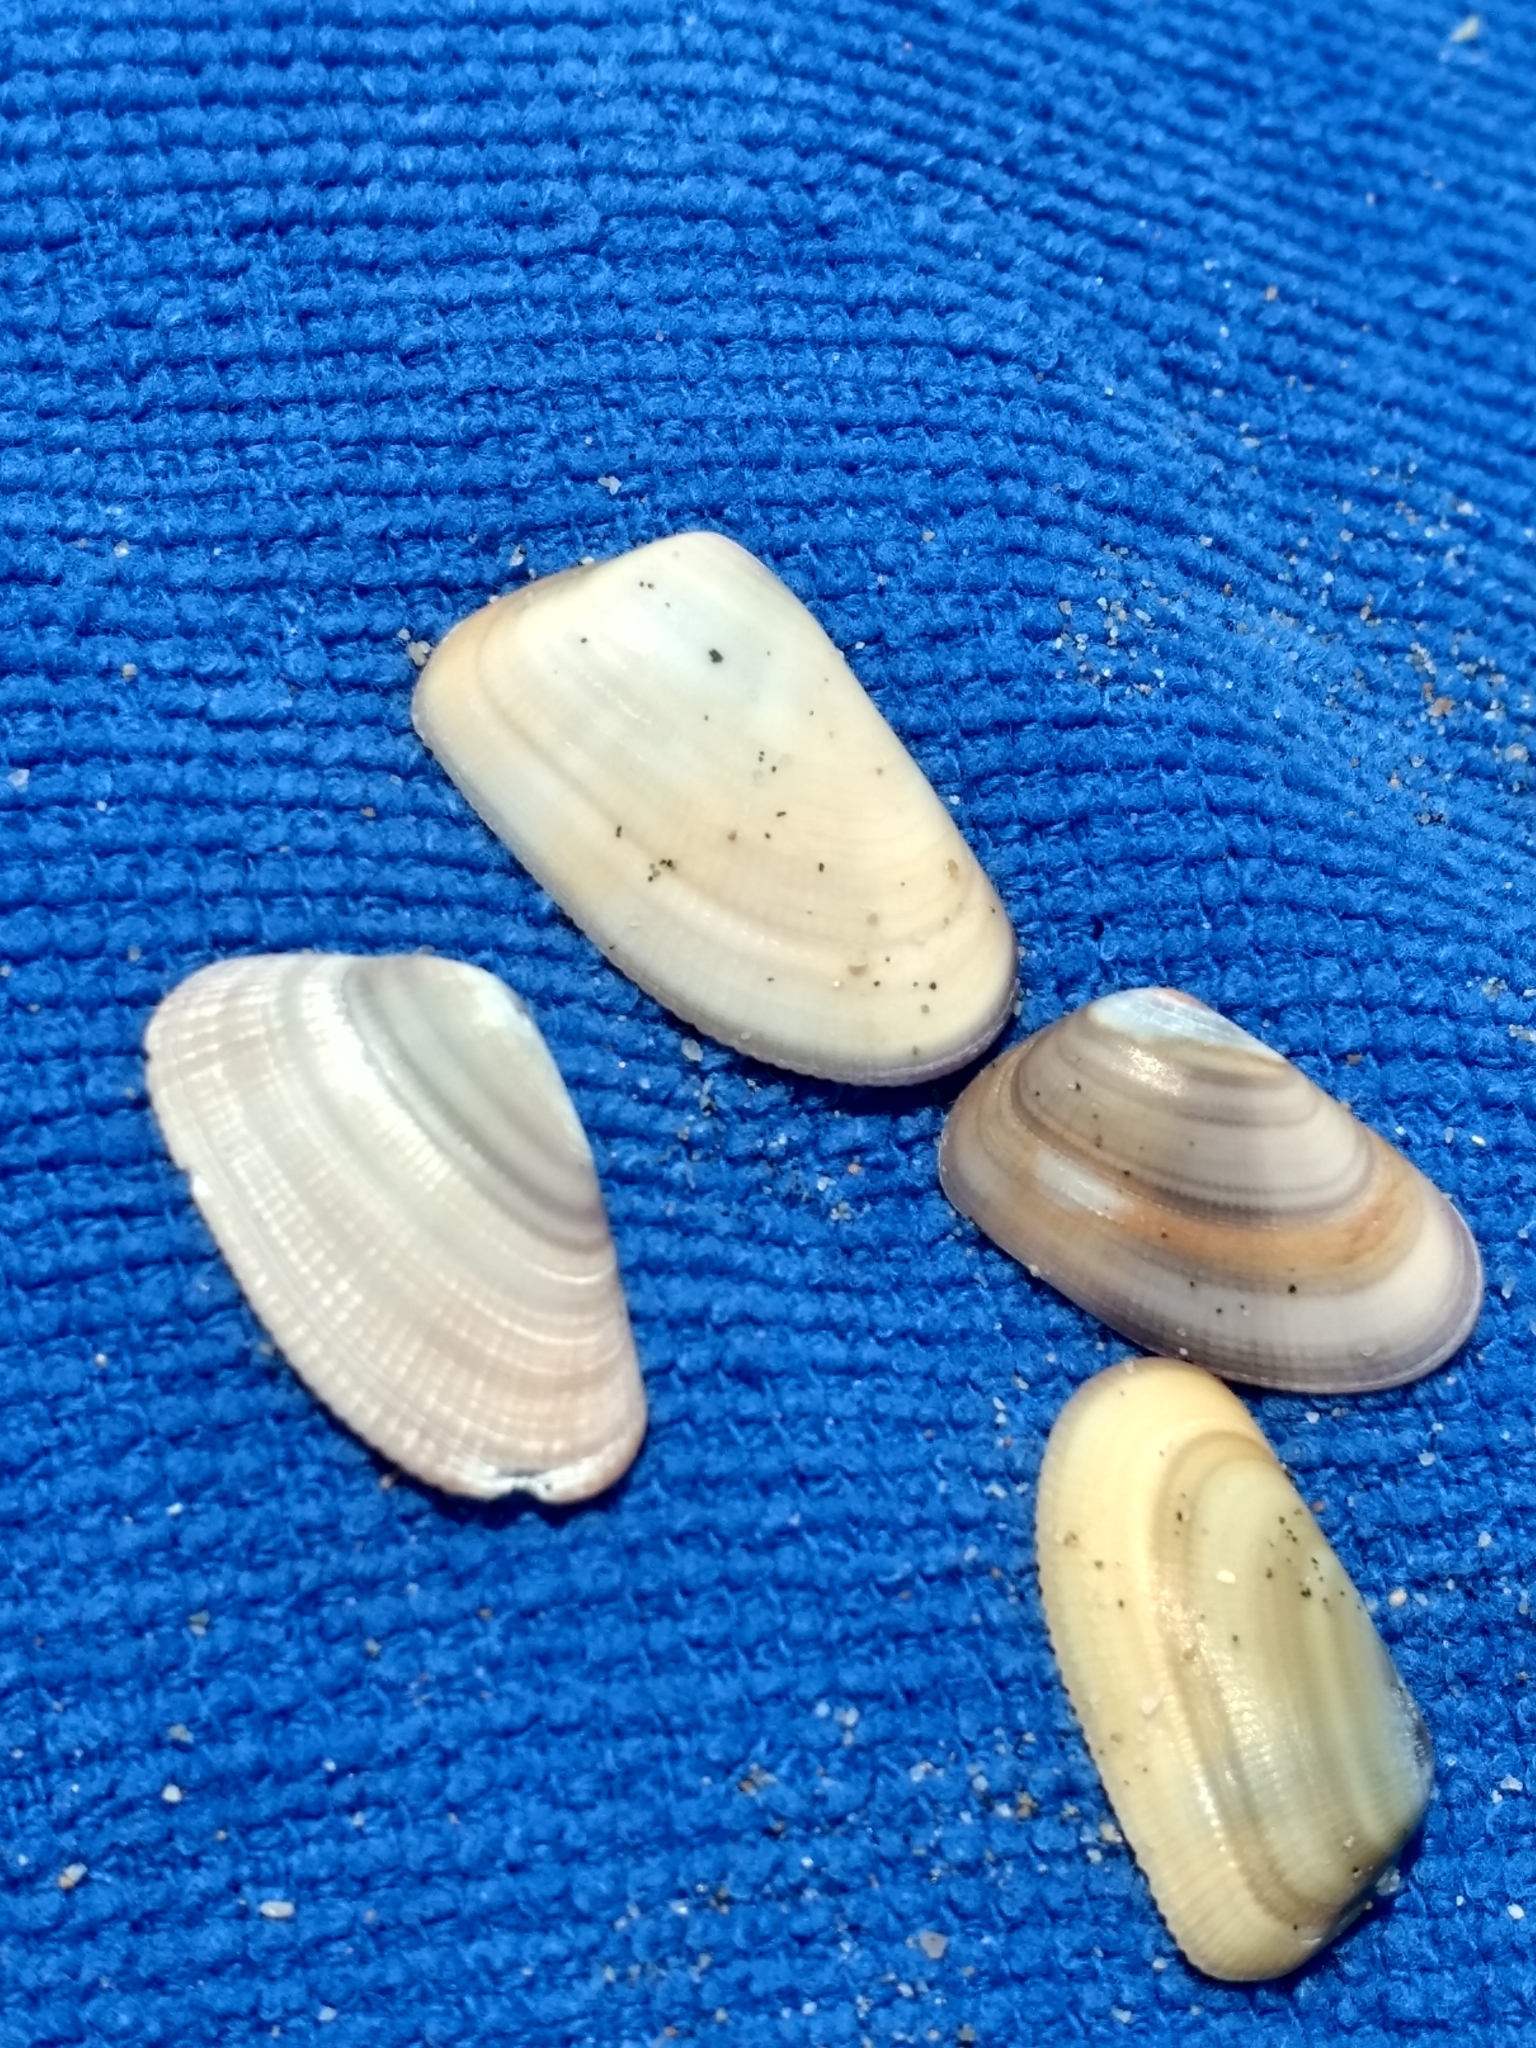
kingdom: Animalia
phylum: Mollusca
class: Bivalvia
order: Cardiida
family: Donacidae
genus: Donax
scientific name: Donax gouldii
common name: Gould beanclam
